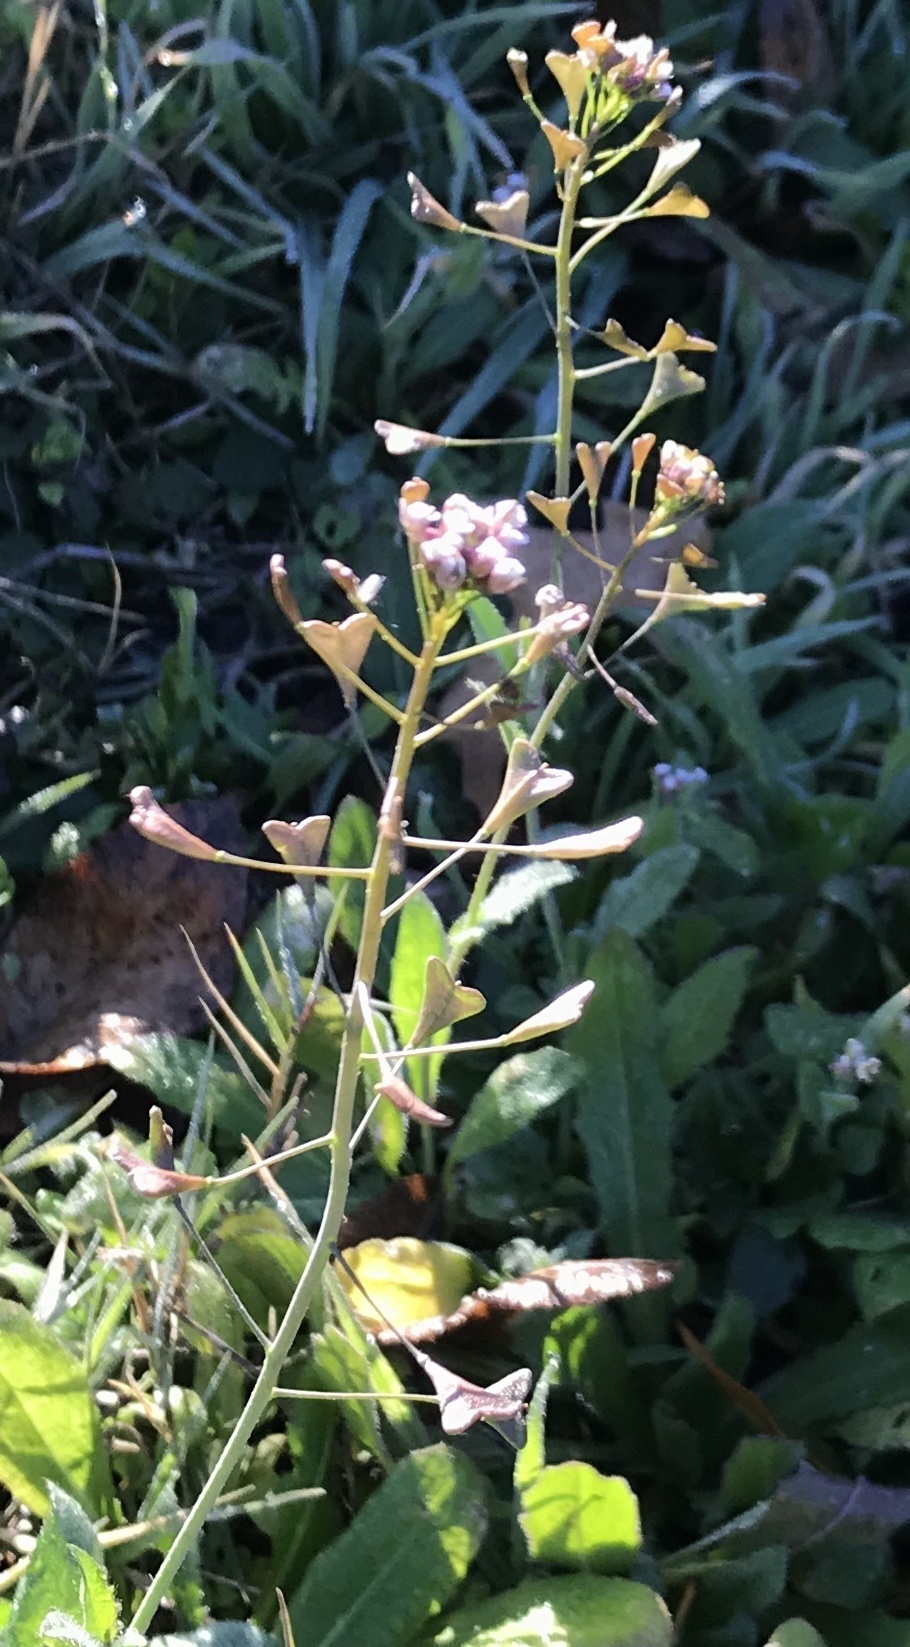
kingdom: Plantae
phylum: Tracheophyta
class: Magnoliopsida
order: Brassicales
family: Brassicaceae
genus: Capsella
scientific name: Capsella bursa-pastoris
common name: Shepherd's purse
